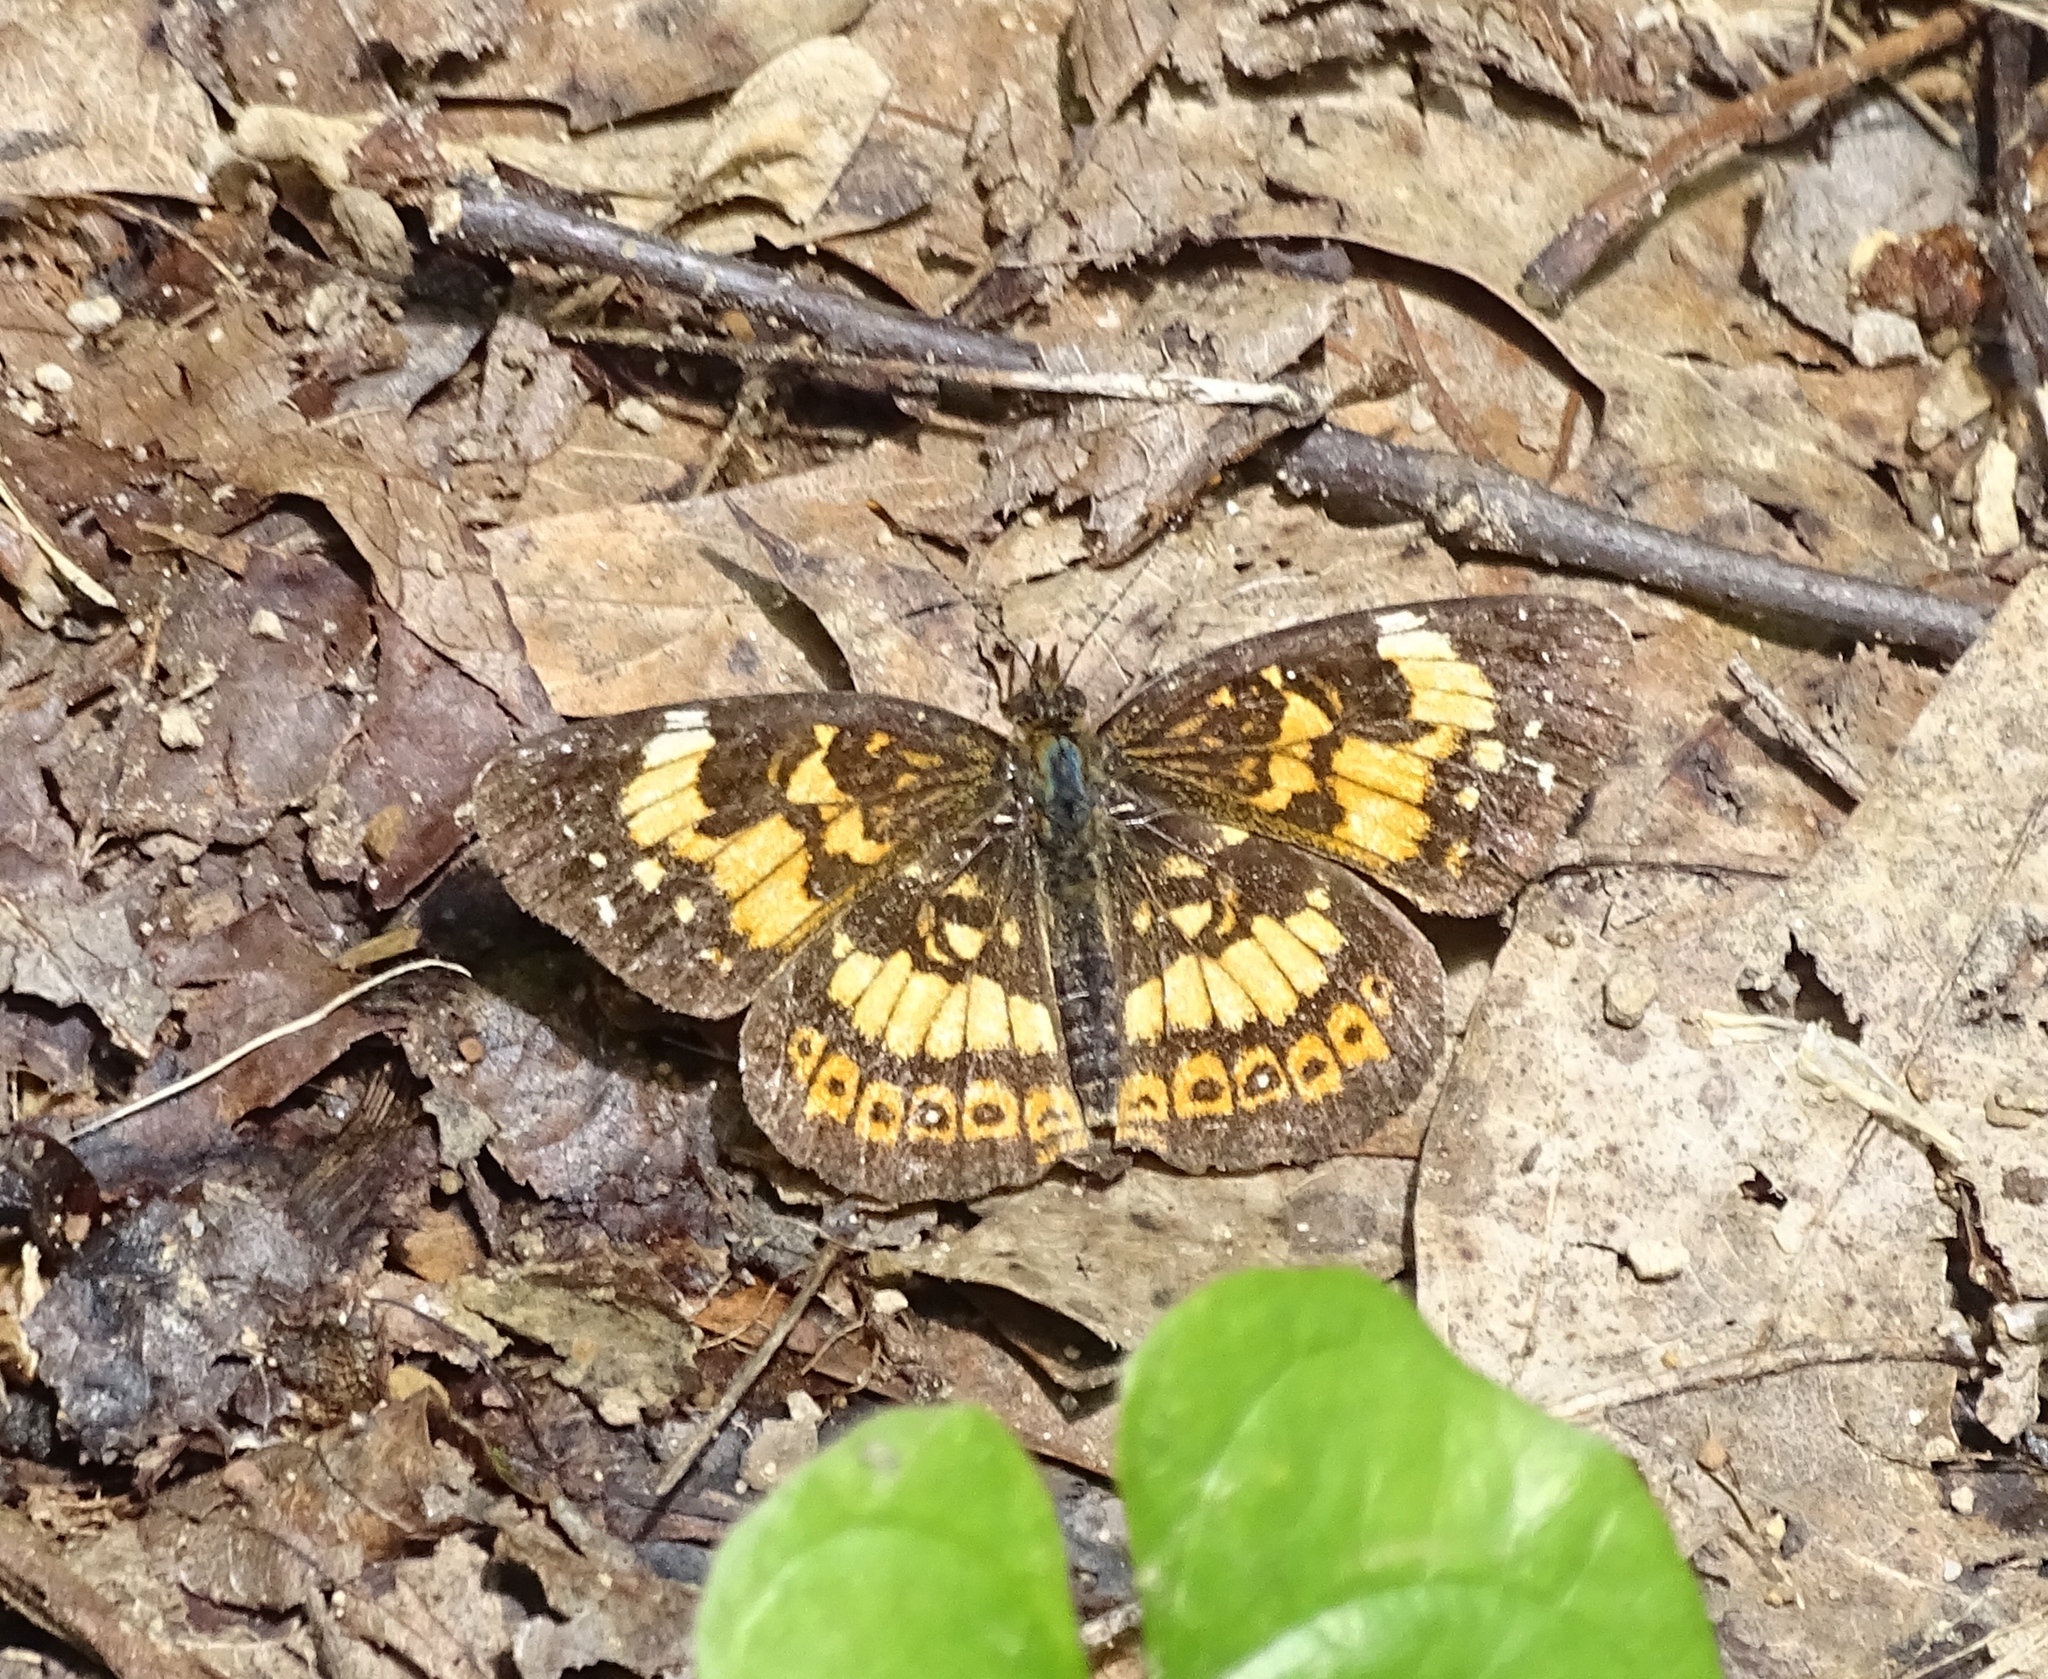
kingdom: Animalia
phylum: Arthropoda
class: Insecta
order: Lepidoptera
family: Nymphalidae
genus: Chlosyne
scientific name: Chlosyne nycteis
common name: Silvery checkerspot
